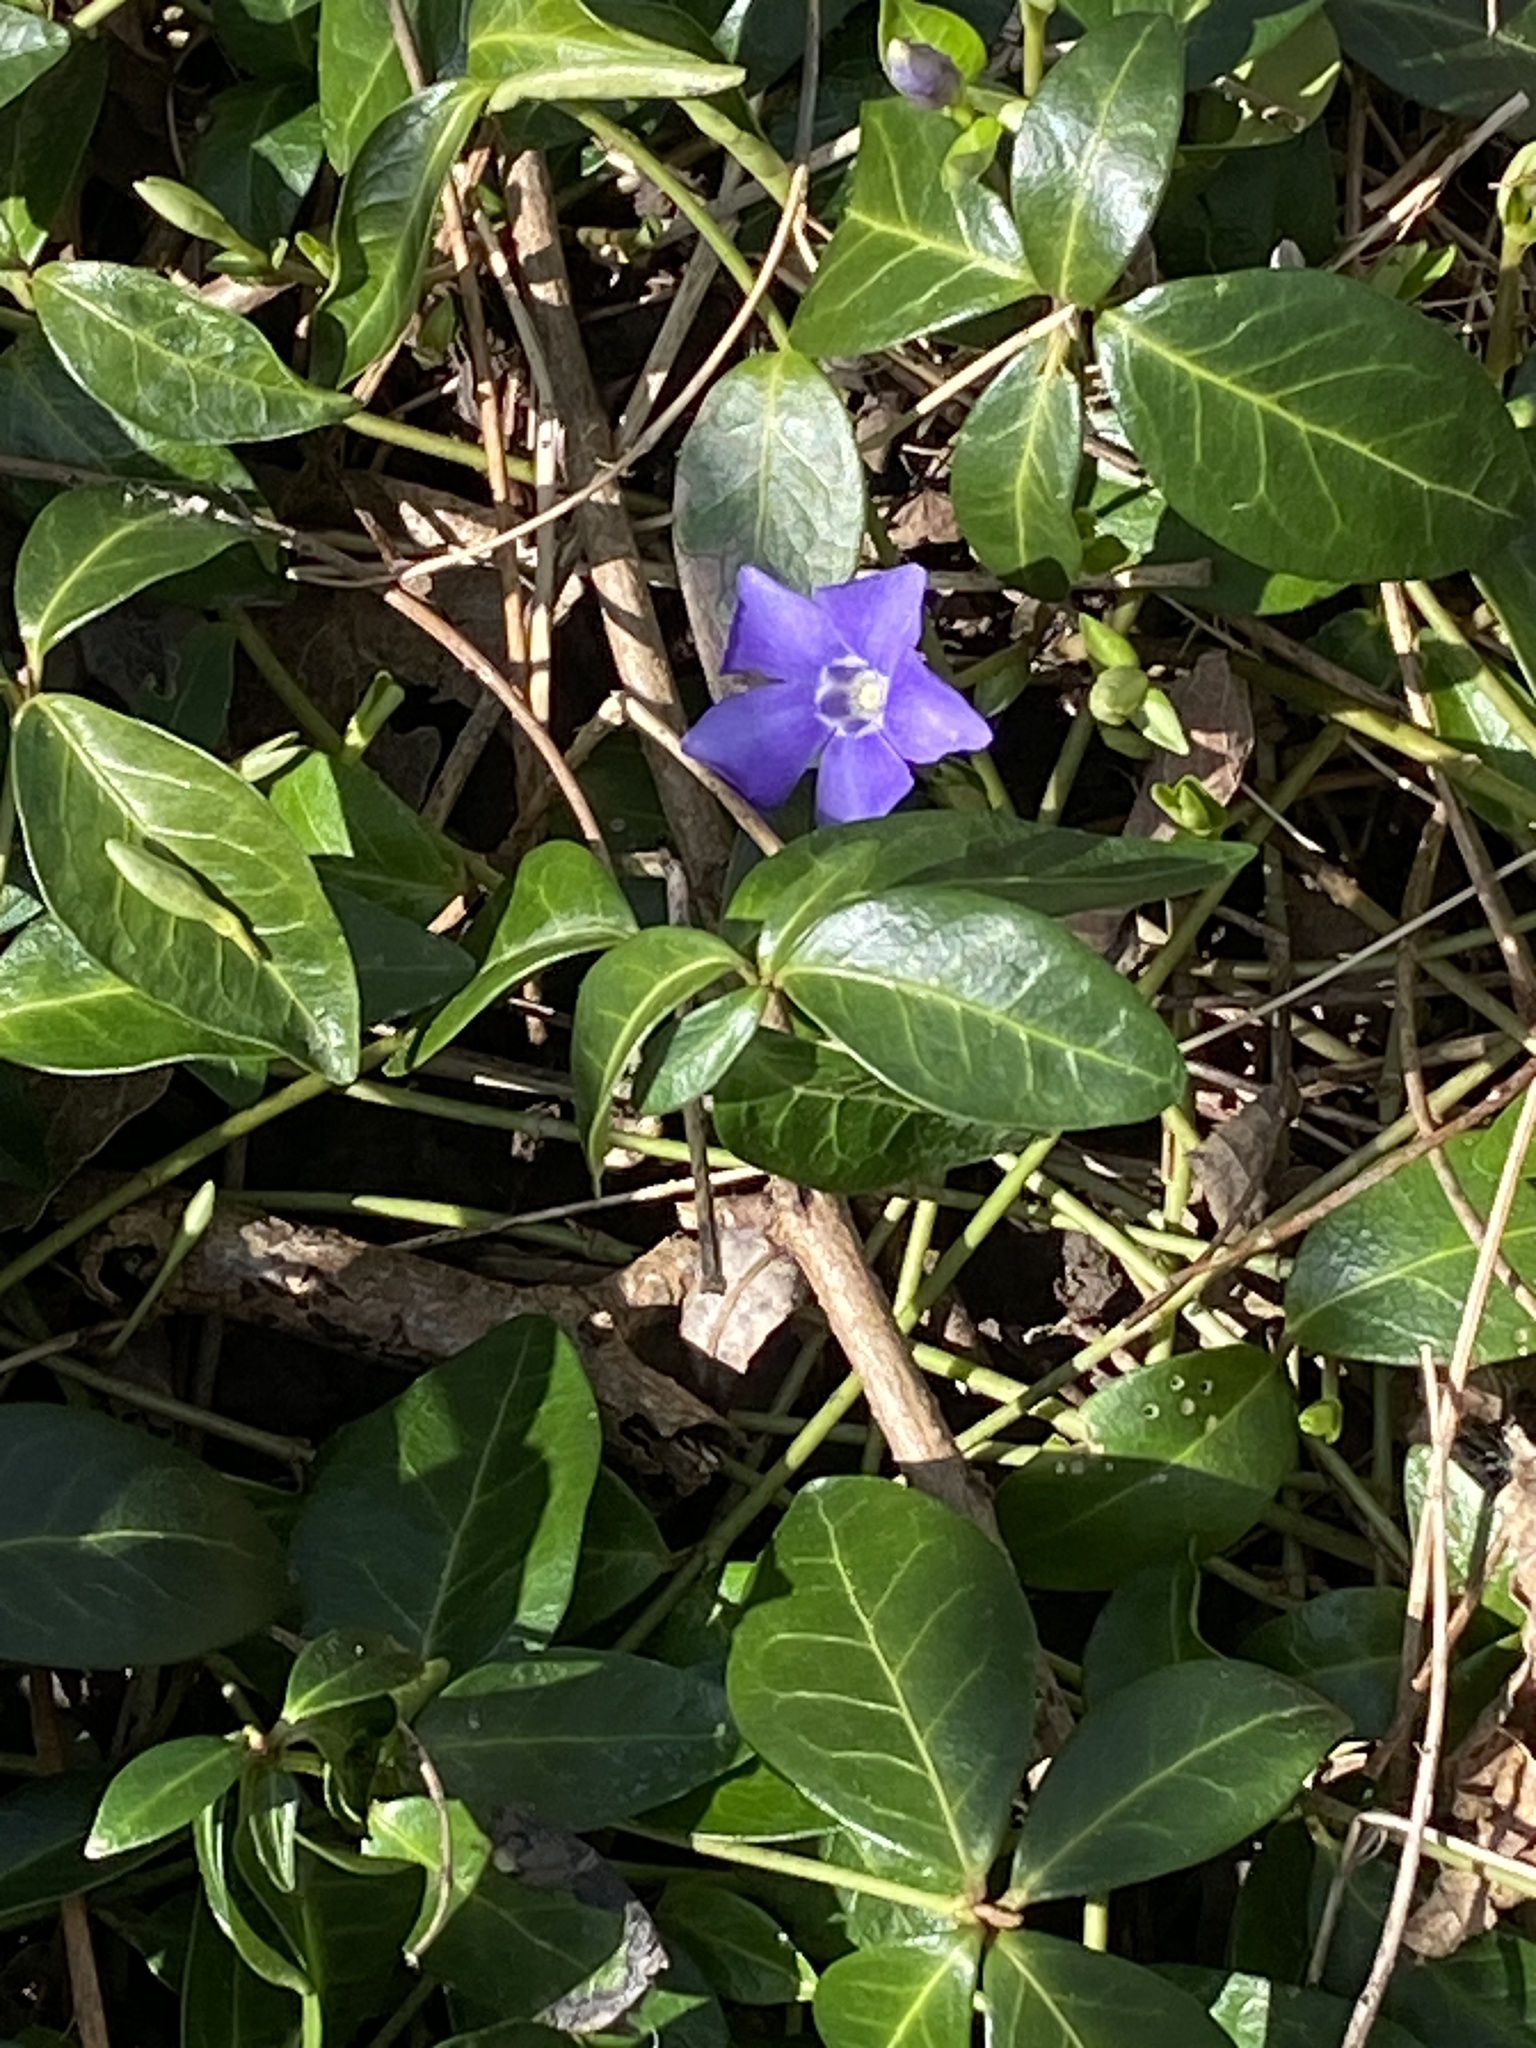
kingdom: Plantae
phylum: Tracheophyta
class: Magnoliopsida
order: Gentianales
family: Apocynaceae
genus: Vinca
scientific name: Vinca minor
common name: Lesser periwinkle
